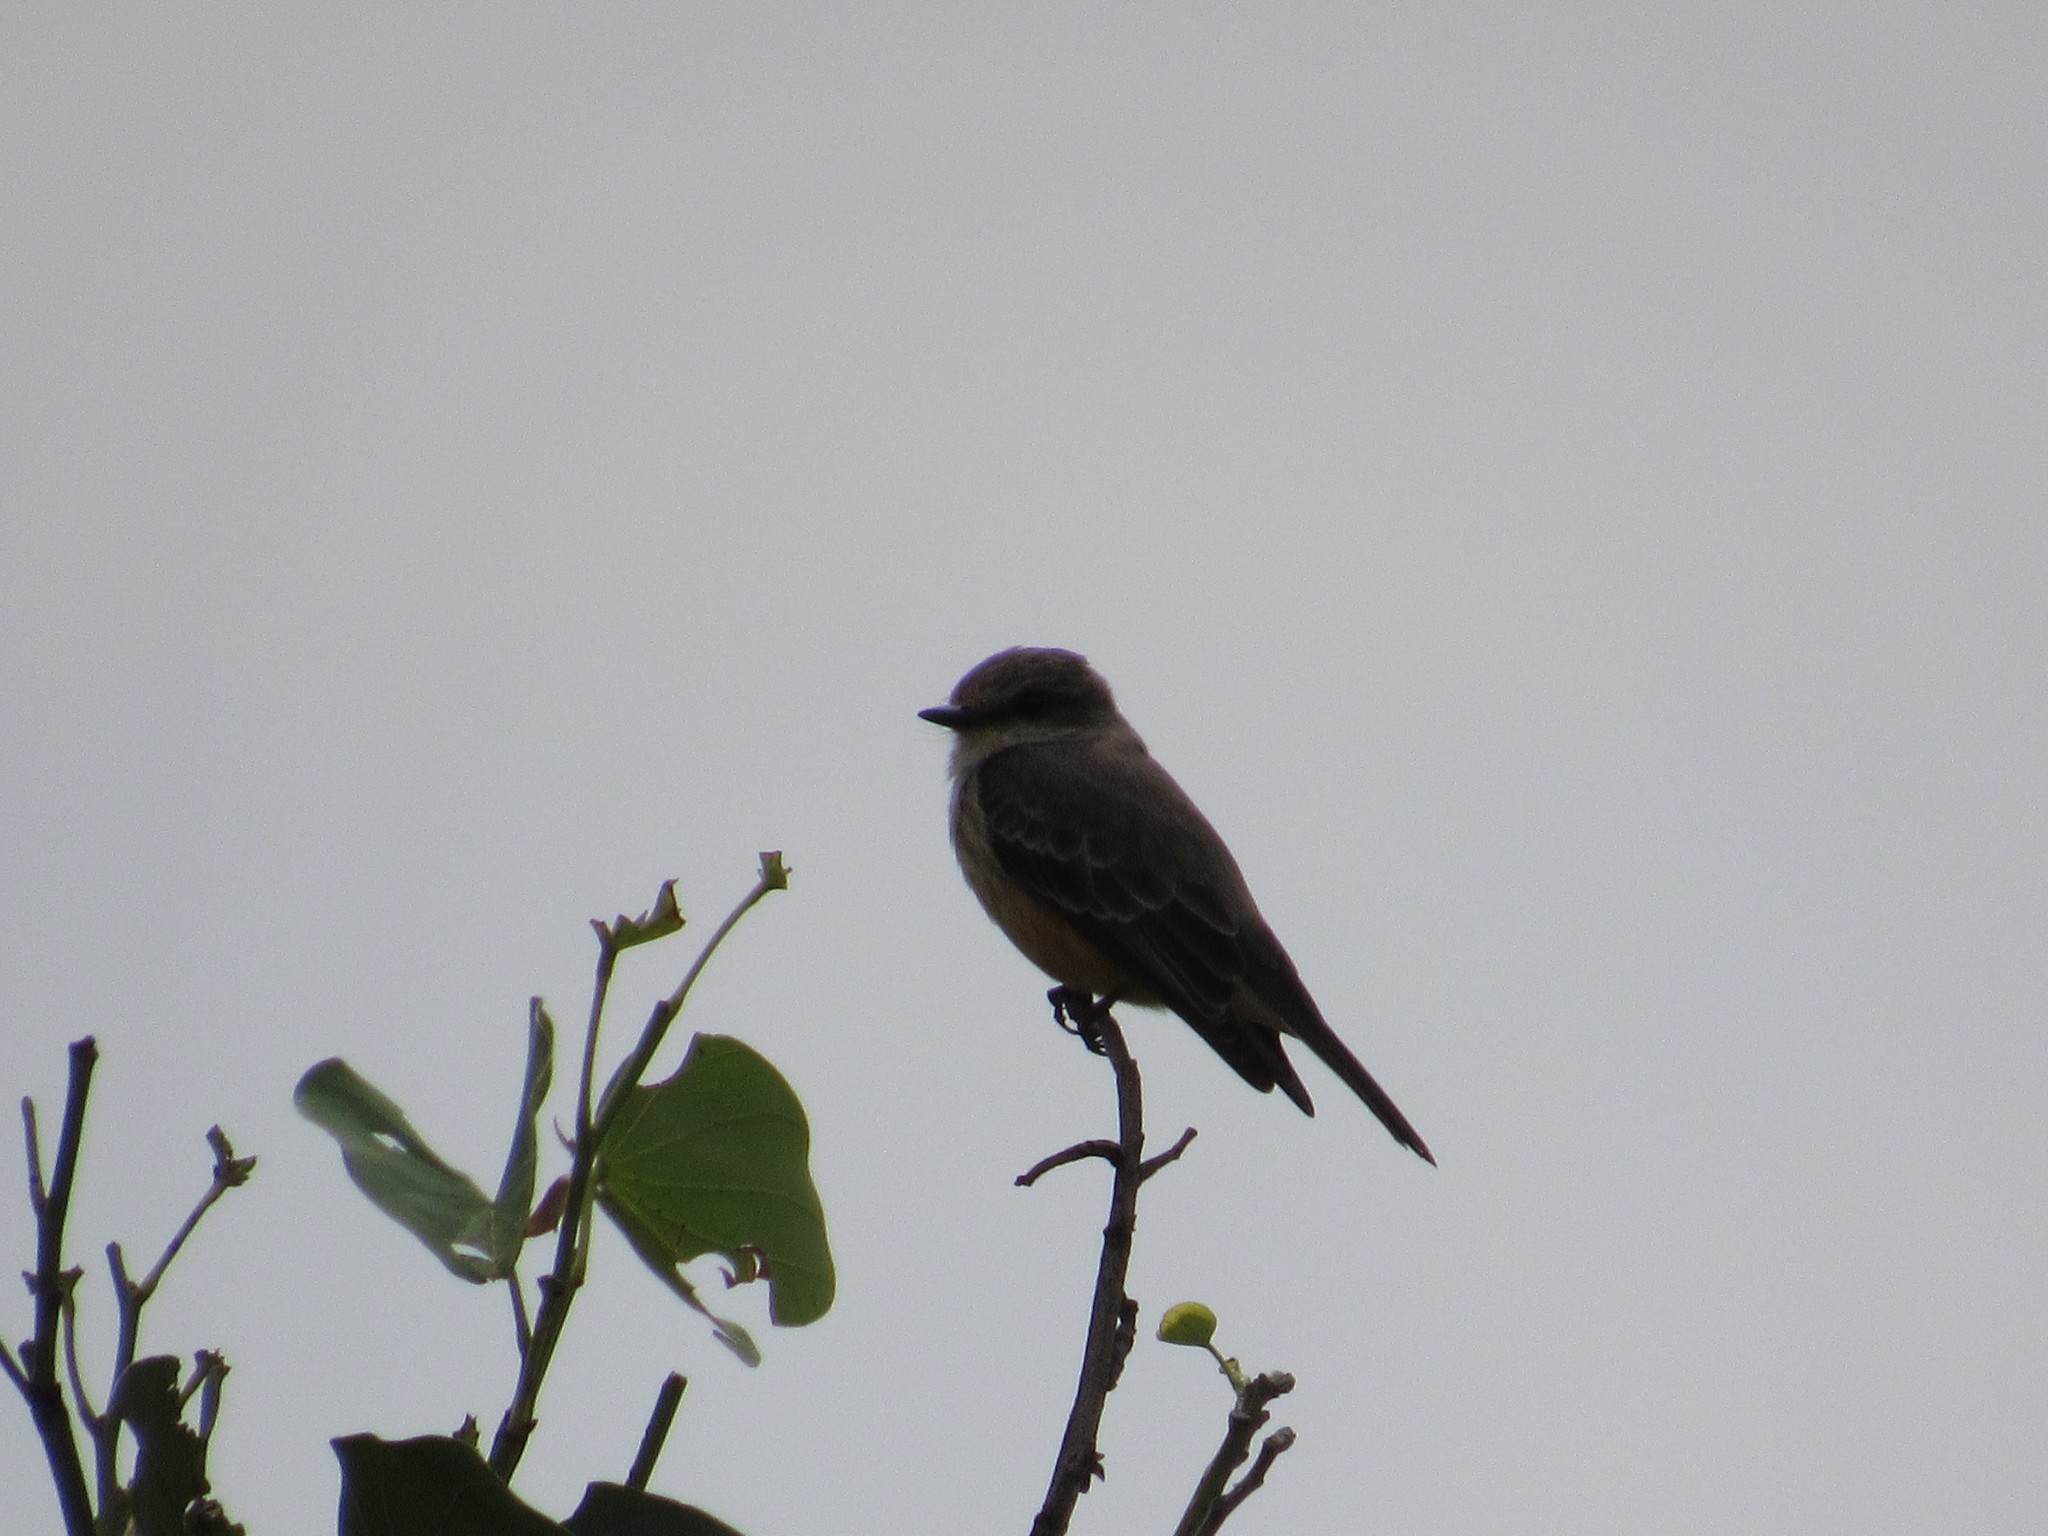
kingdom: Animalia
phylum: Chordata
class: Aves
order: Passeriformes
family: Tyrannidae
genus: Pyrocephalus
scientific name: Pyrocephalus rubinus
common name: Vermilion flycatcher
